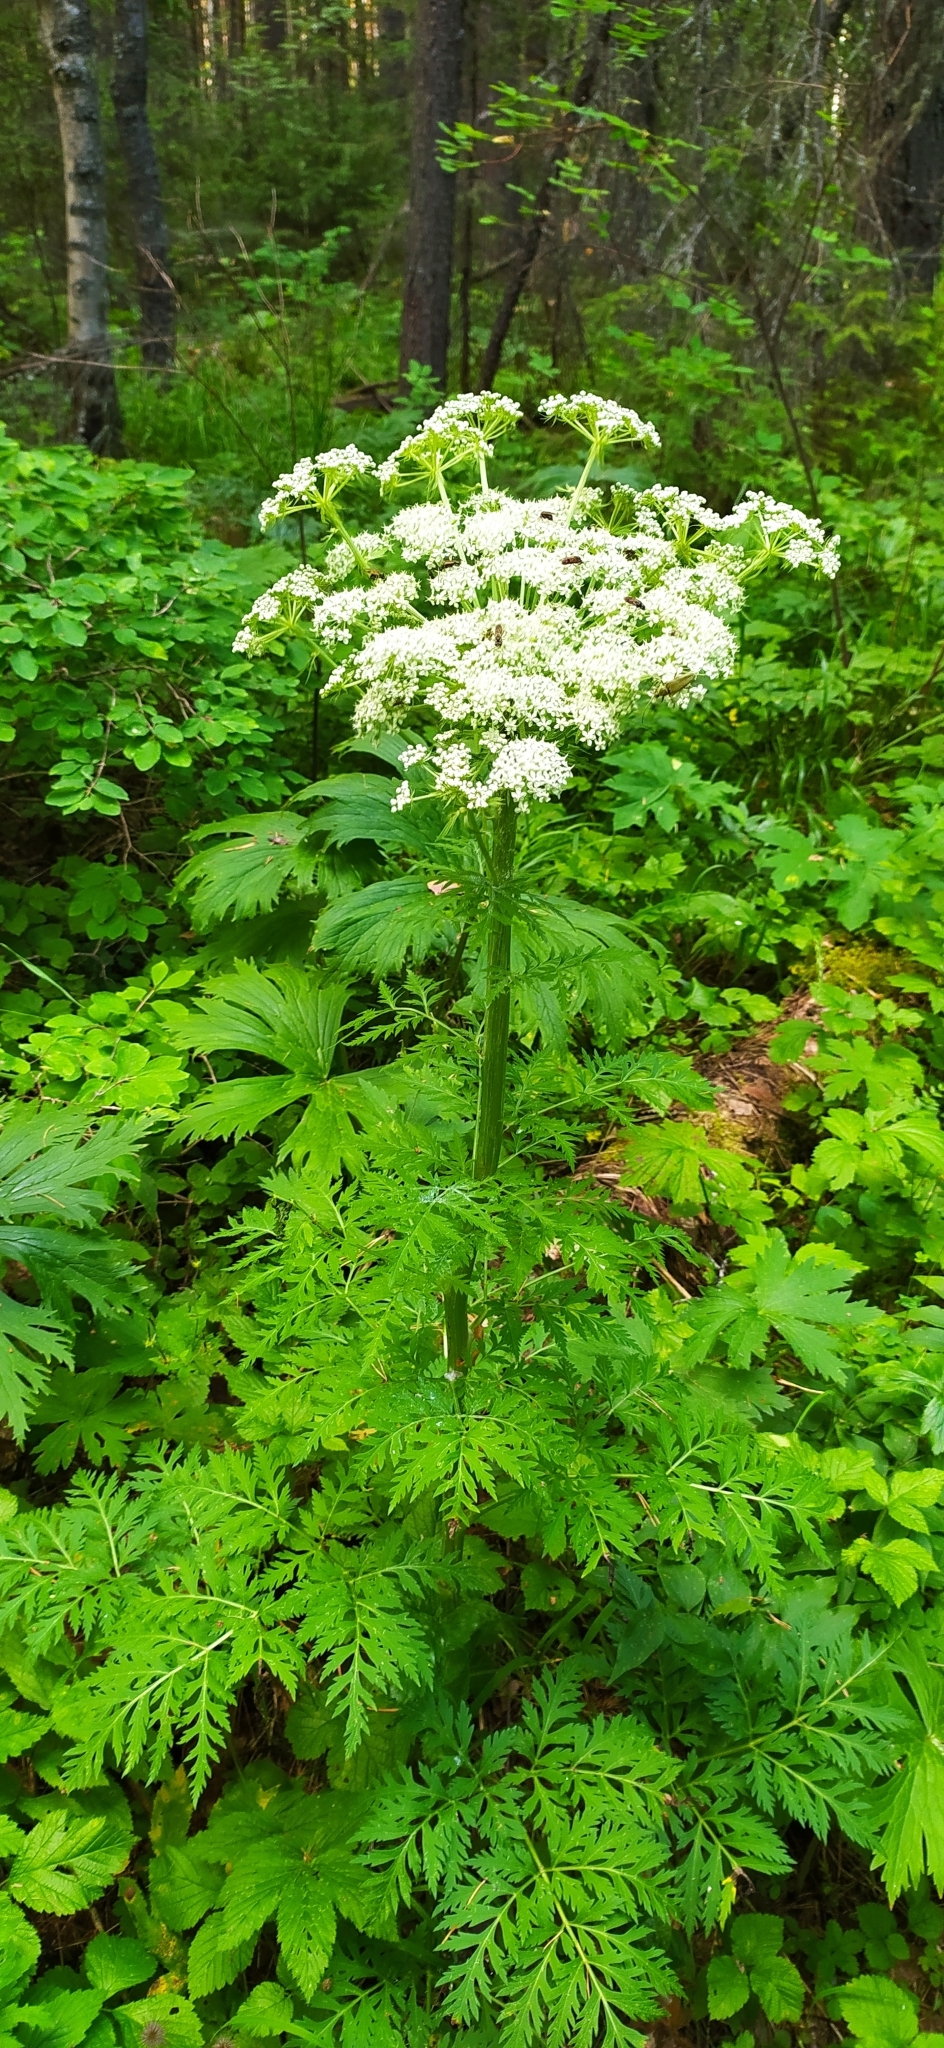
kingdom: Plantae
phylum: Tracheophyta
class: Magnoliopsida
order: Apiales
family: Apiaceae
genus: Pleurospermum
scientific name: Pleurospermum uralense
